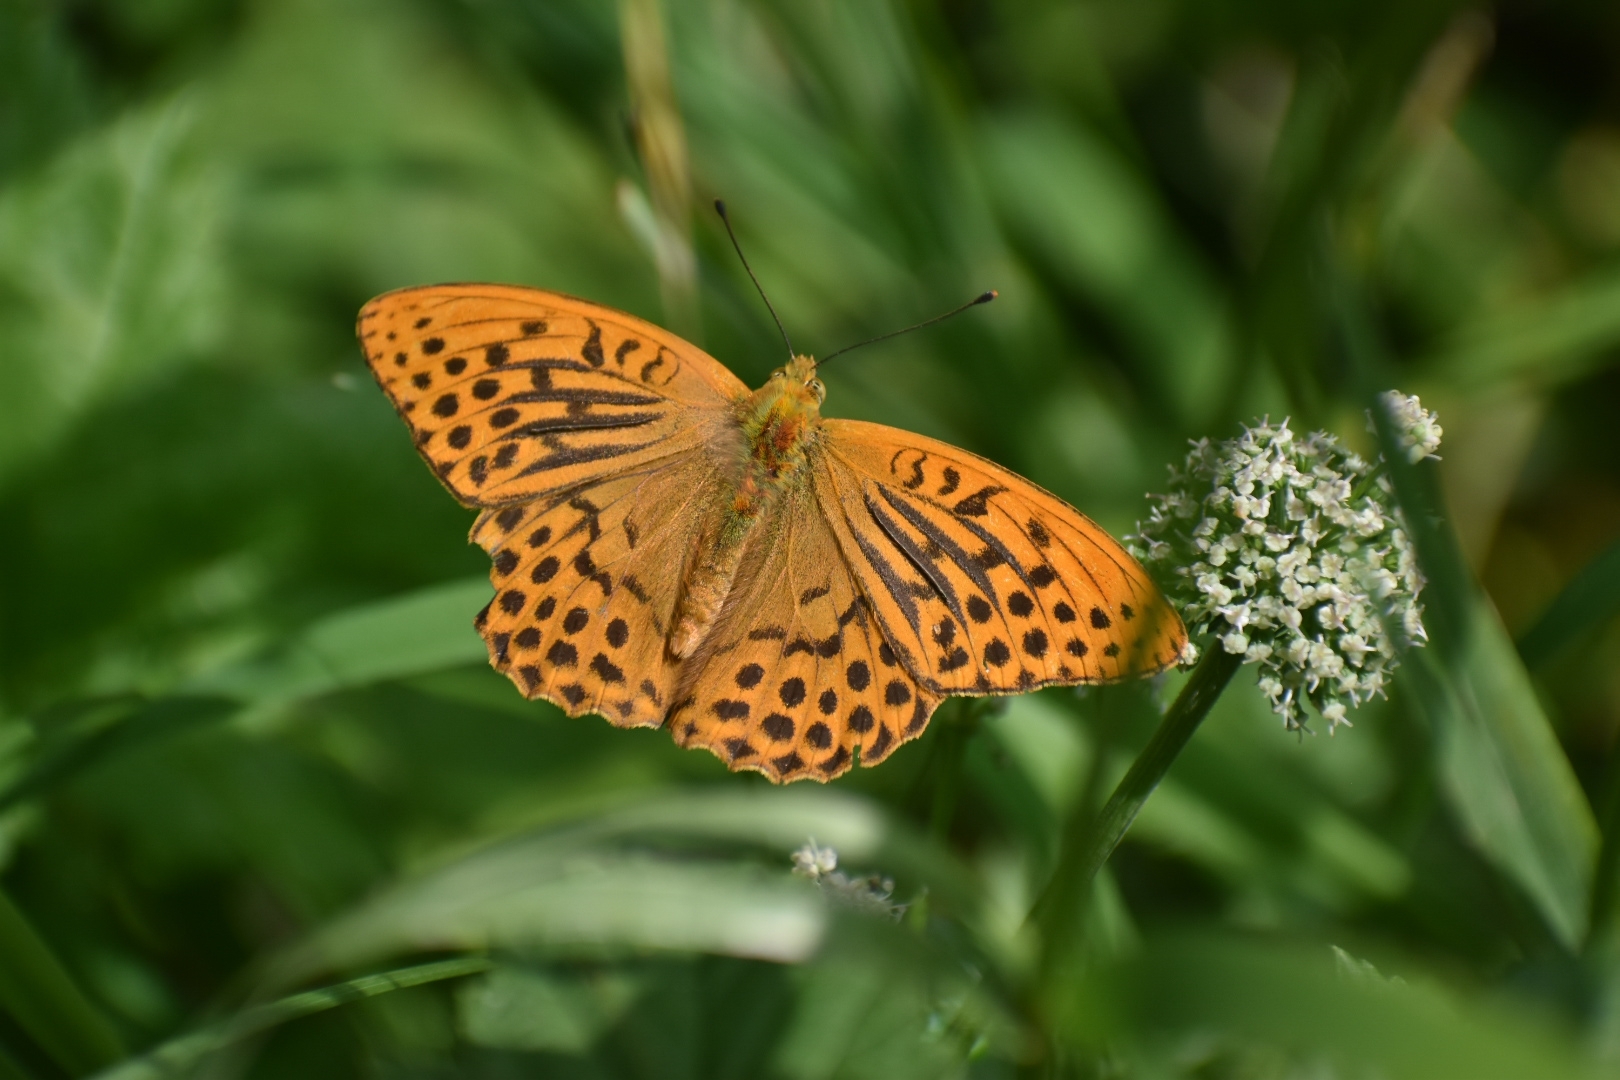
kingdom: Animalia
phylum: Arthropoda
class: Insecta
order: Lepidoptera
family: Nymphalidae
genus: Argynnis
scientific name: Argynnis paphia
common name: Silver-washed fritillary
